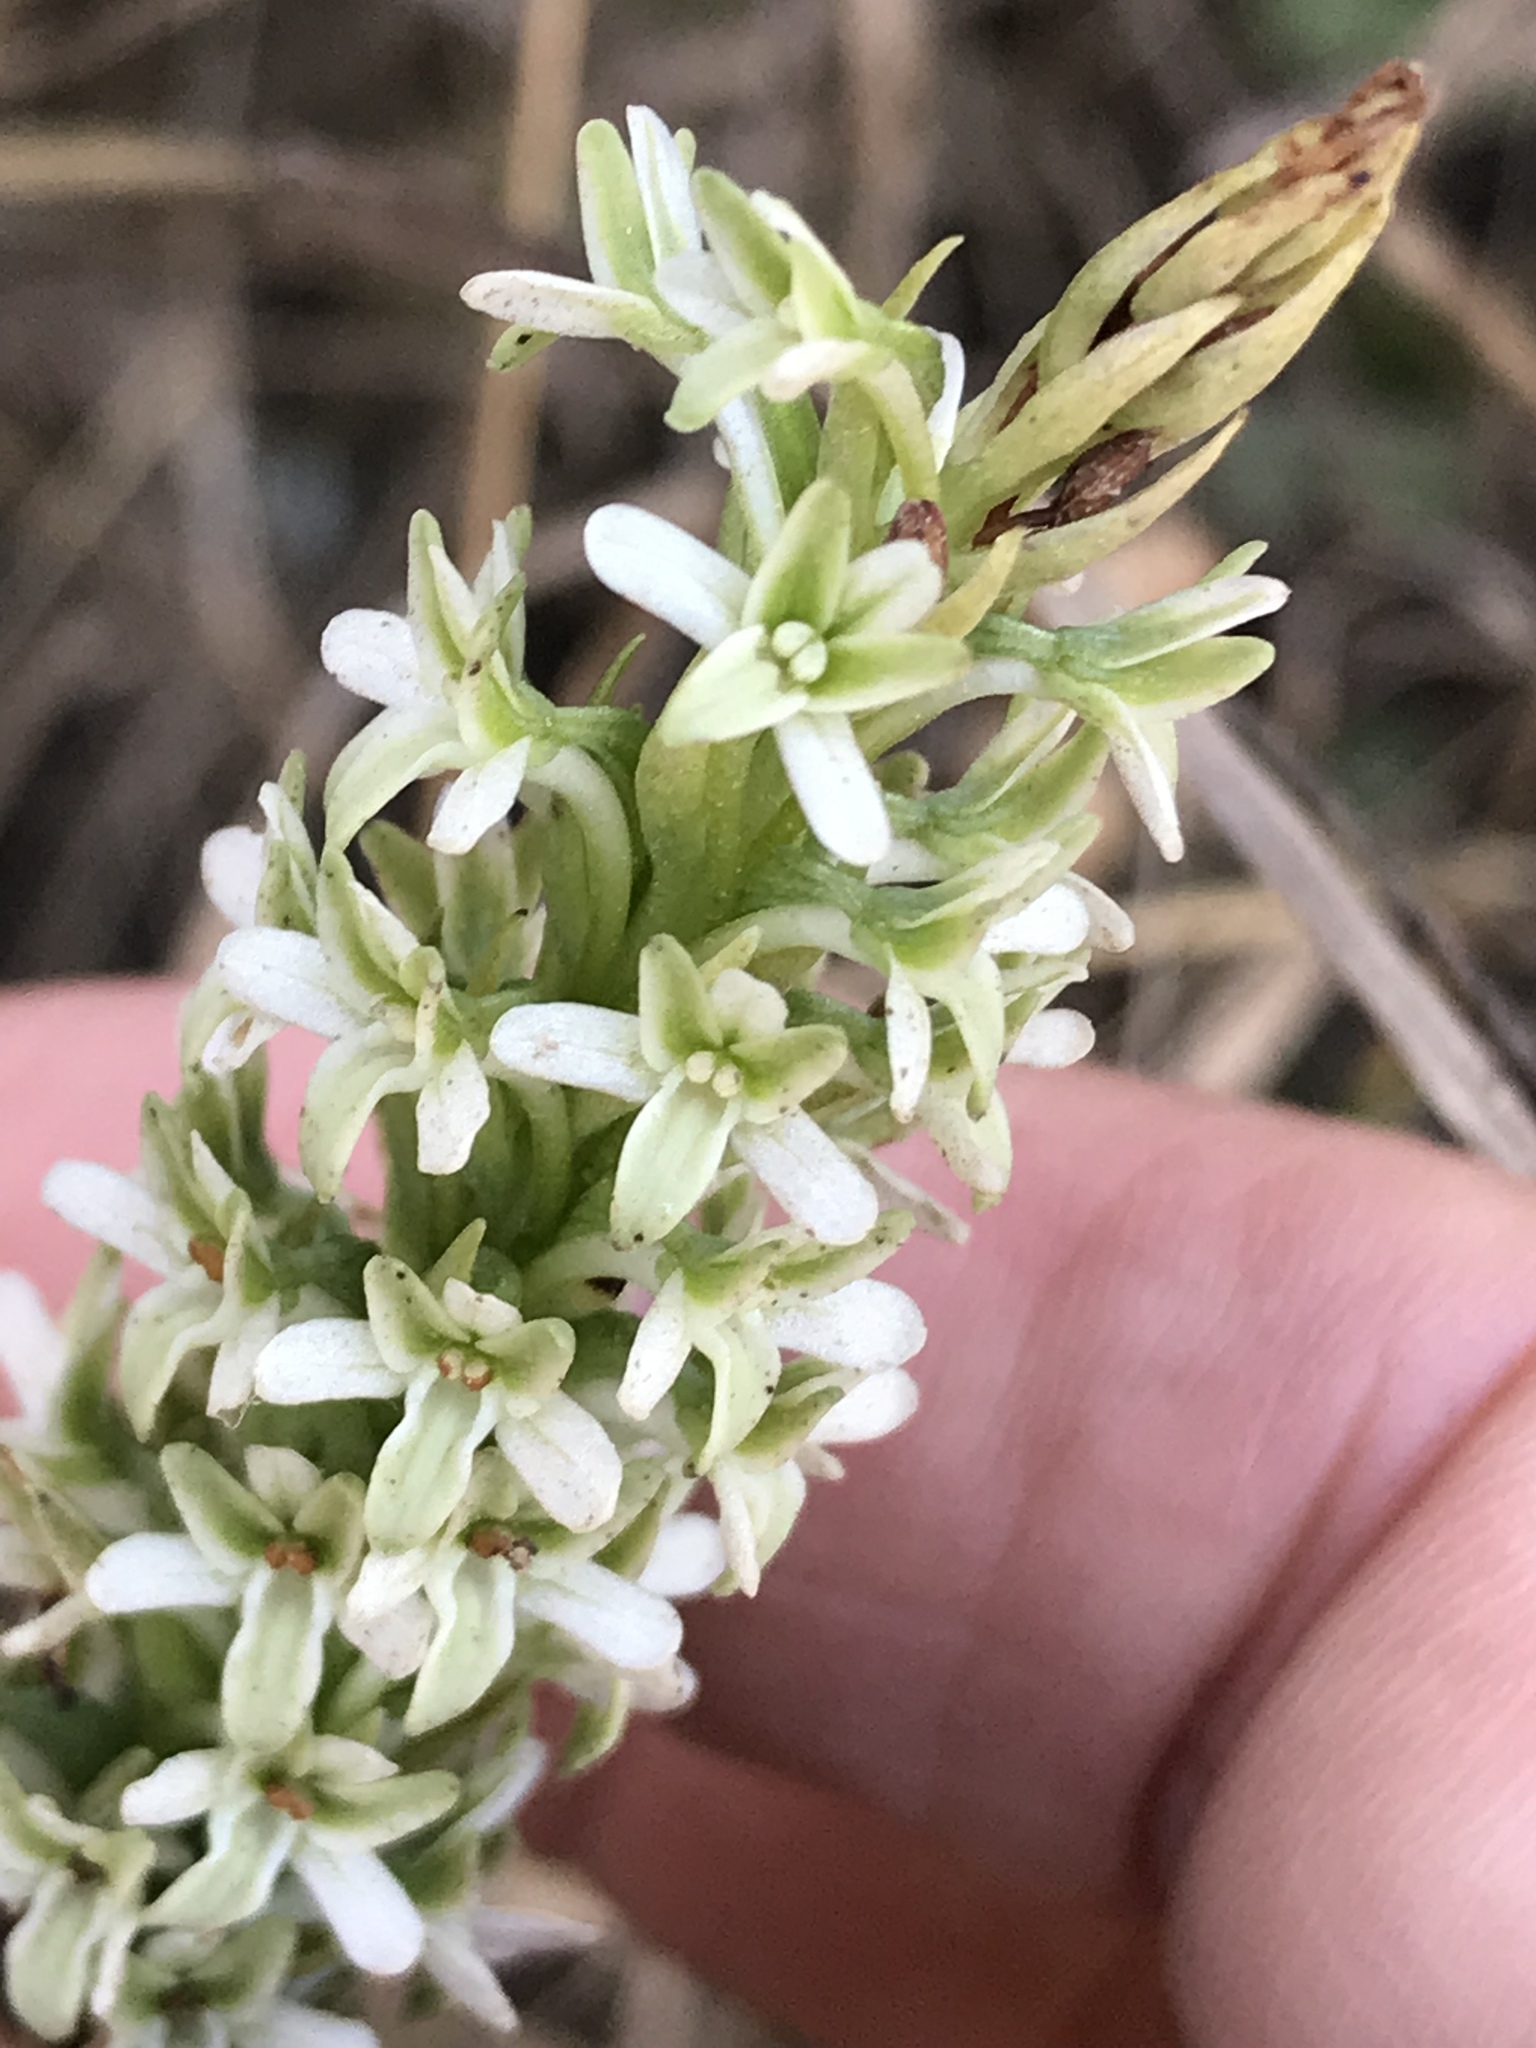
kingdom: Plantae
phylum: Tracheophyta
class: Liliopsida
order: Asparagales
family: Orchidaceae
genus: Platanthera
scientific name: Platanthera elegans
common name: Coast piperia
